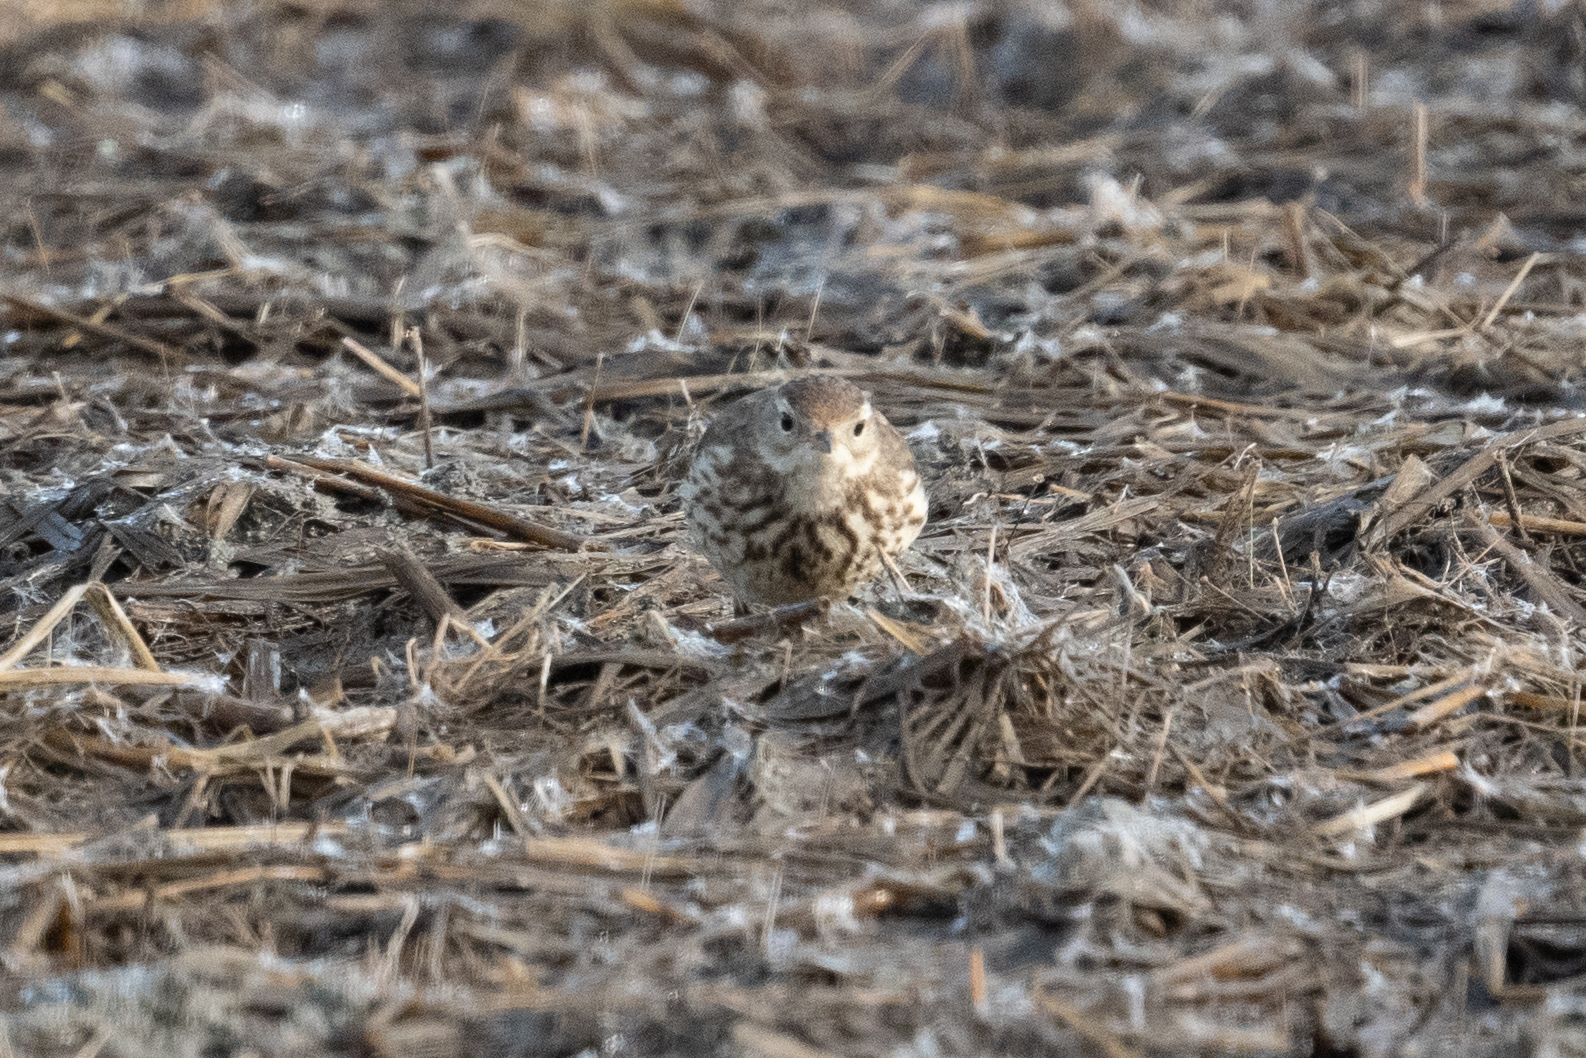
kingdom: Animalia
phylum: Chordata
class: Aves
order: Passeriformes
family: Motacillidae
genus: Anthus
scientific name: Anthus rubescens
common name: Buff-bellied pipit
